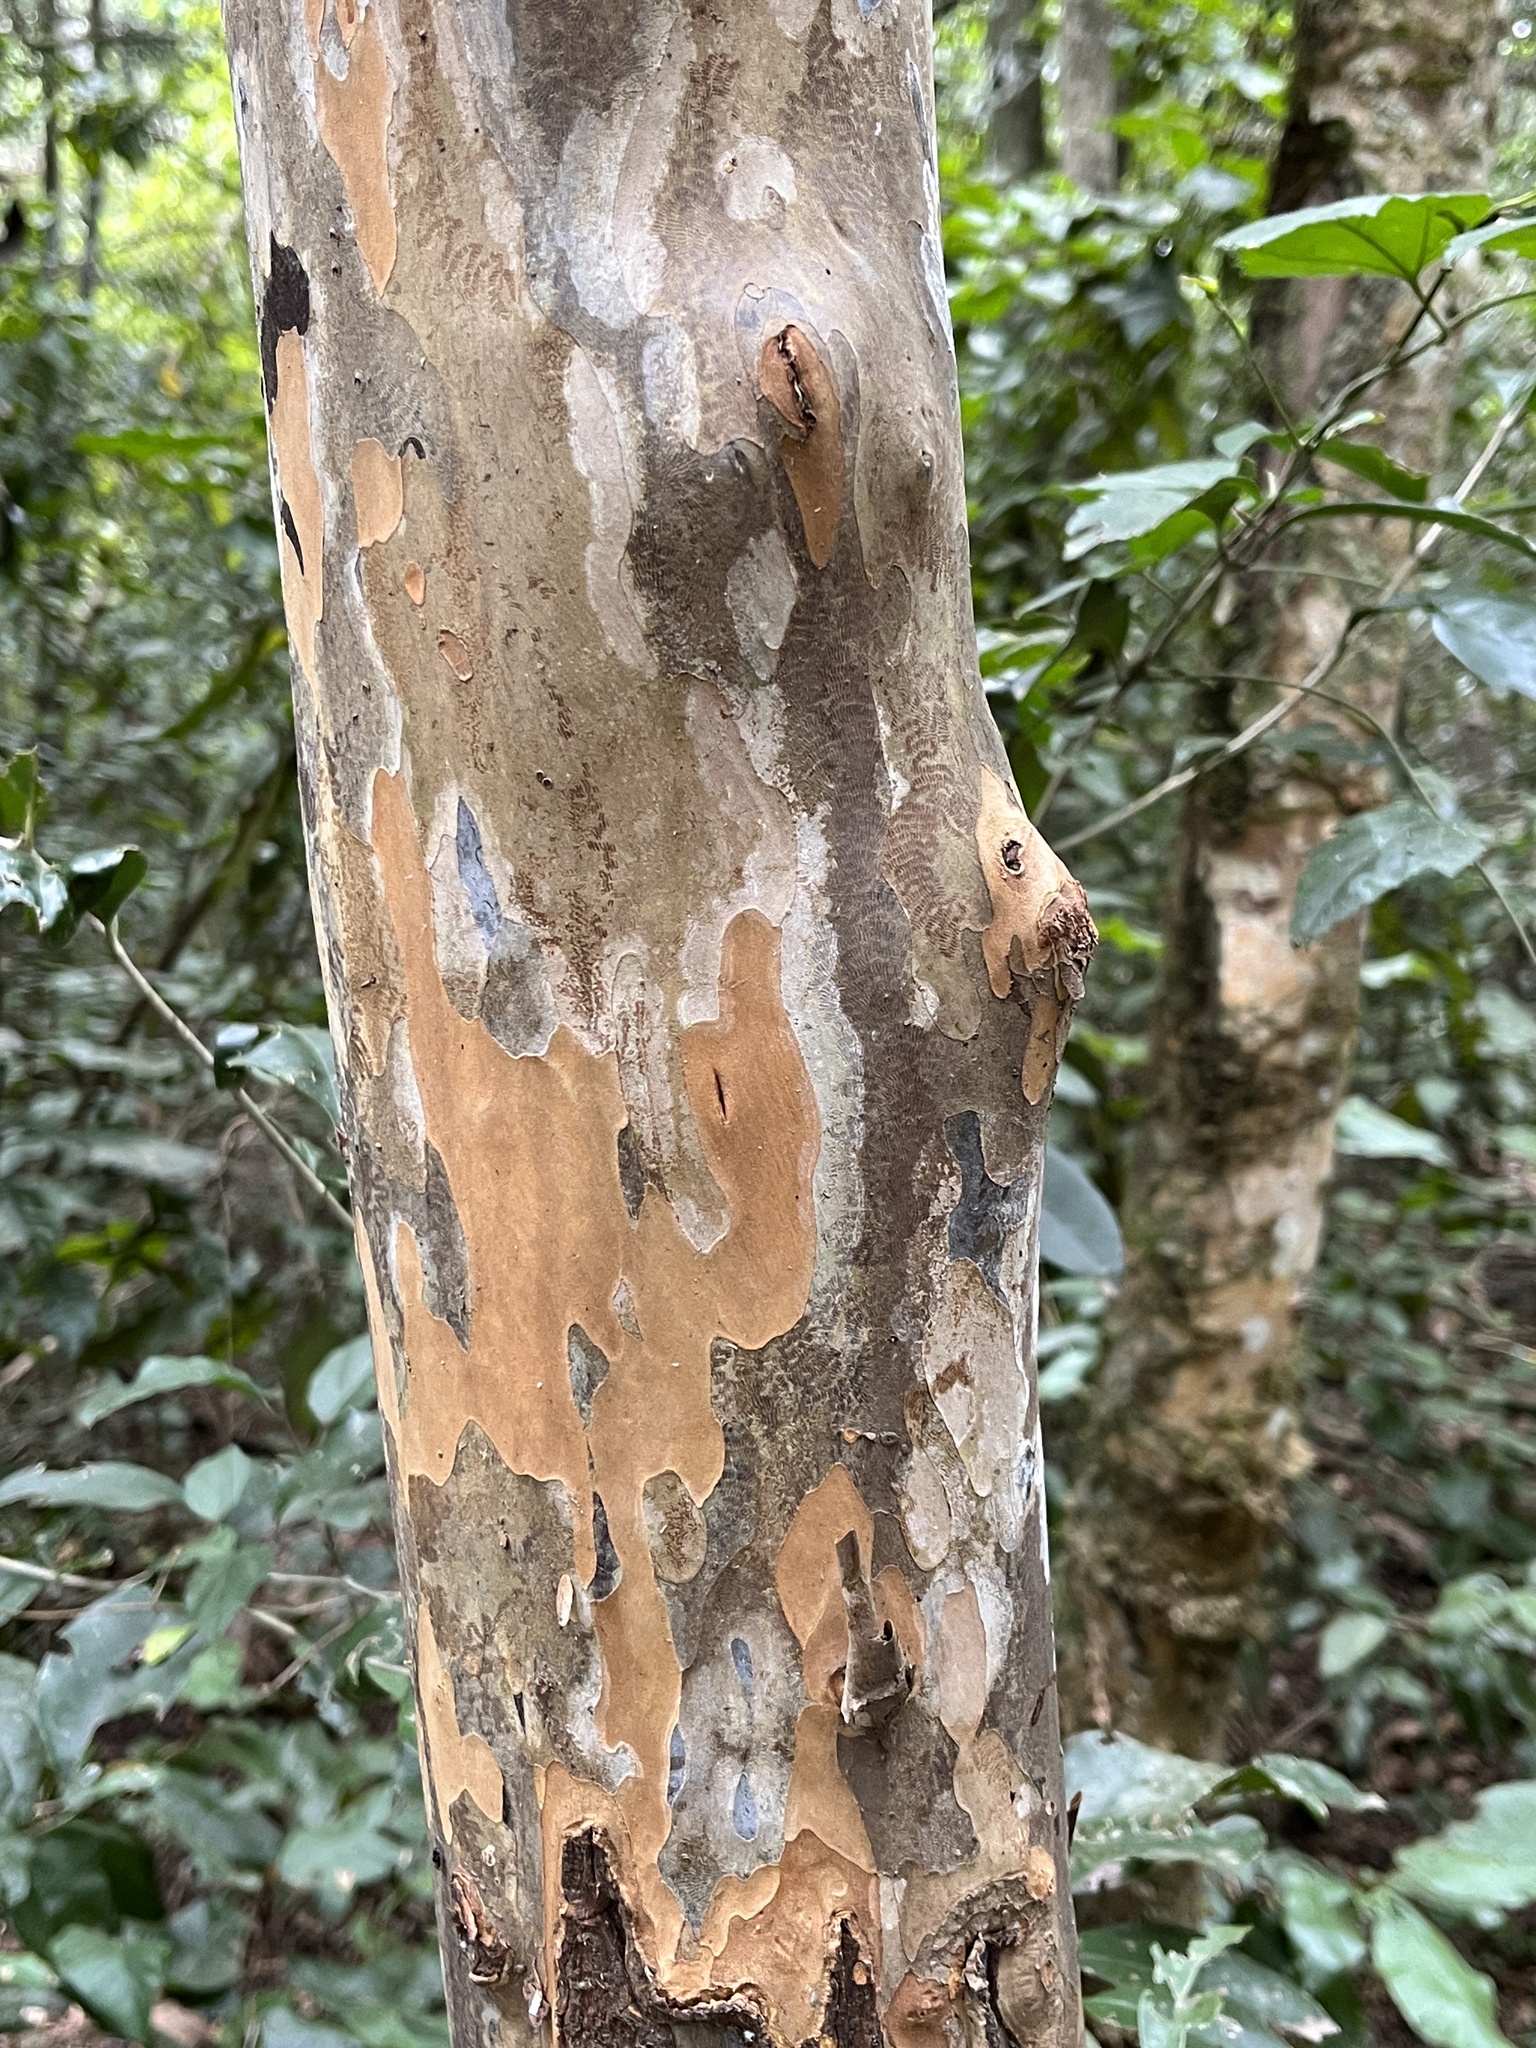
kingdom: Plantae
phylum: Tracheophyta
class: Magnoliopsida
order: Malpighiales
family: Ochnaceae
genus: Ochna
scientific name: Ochna arborea
